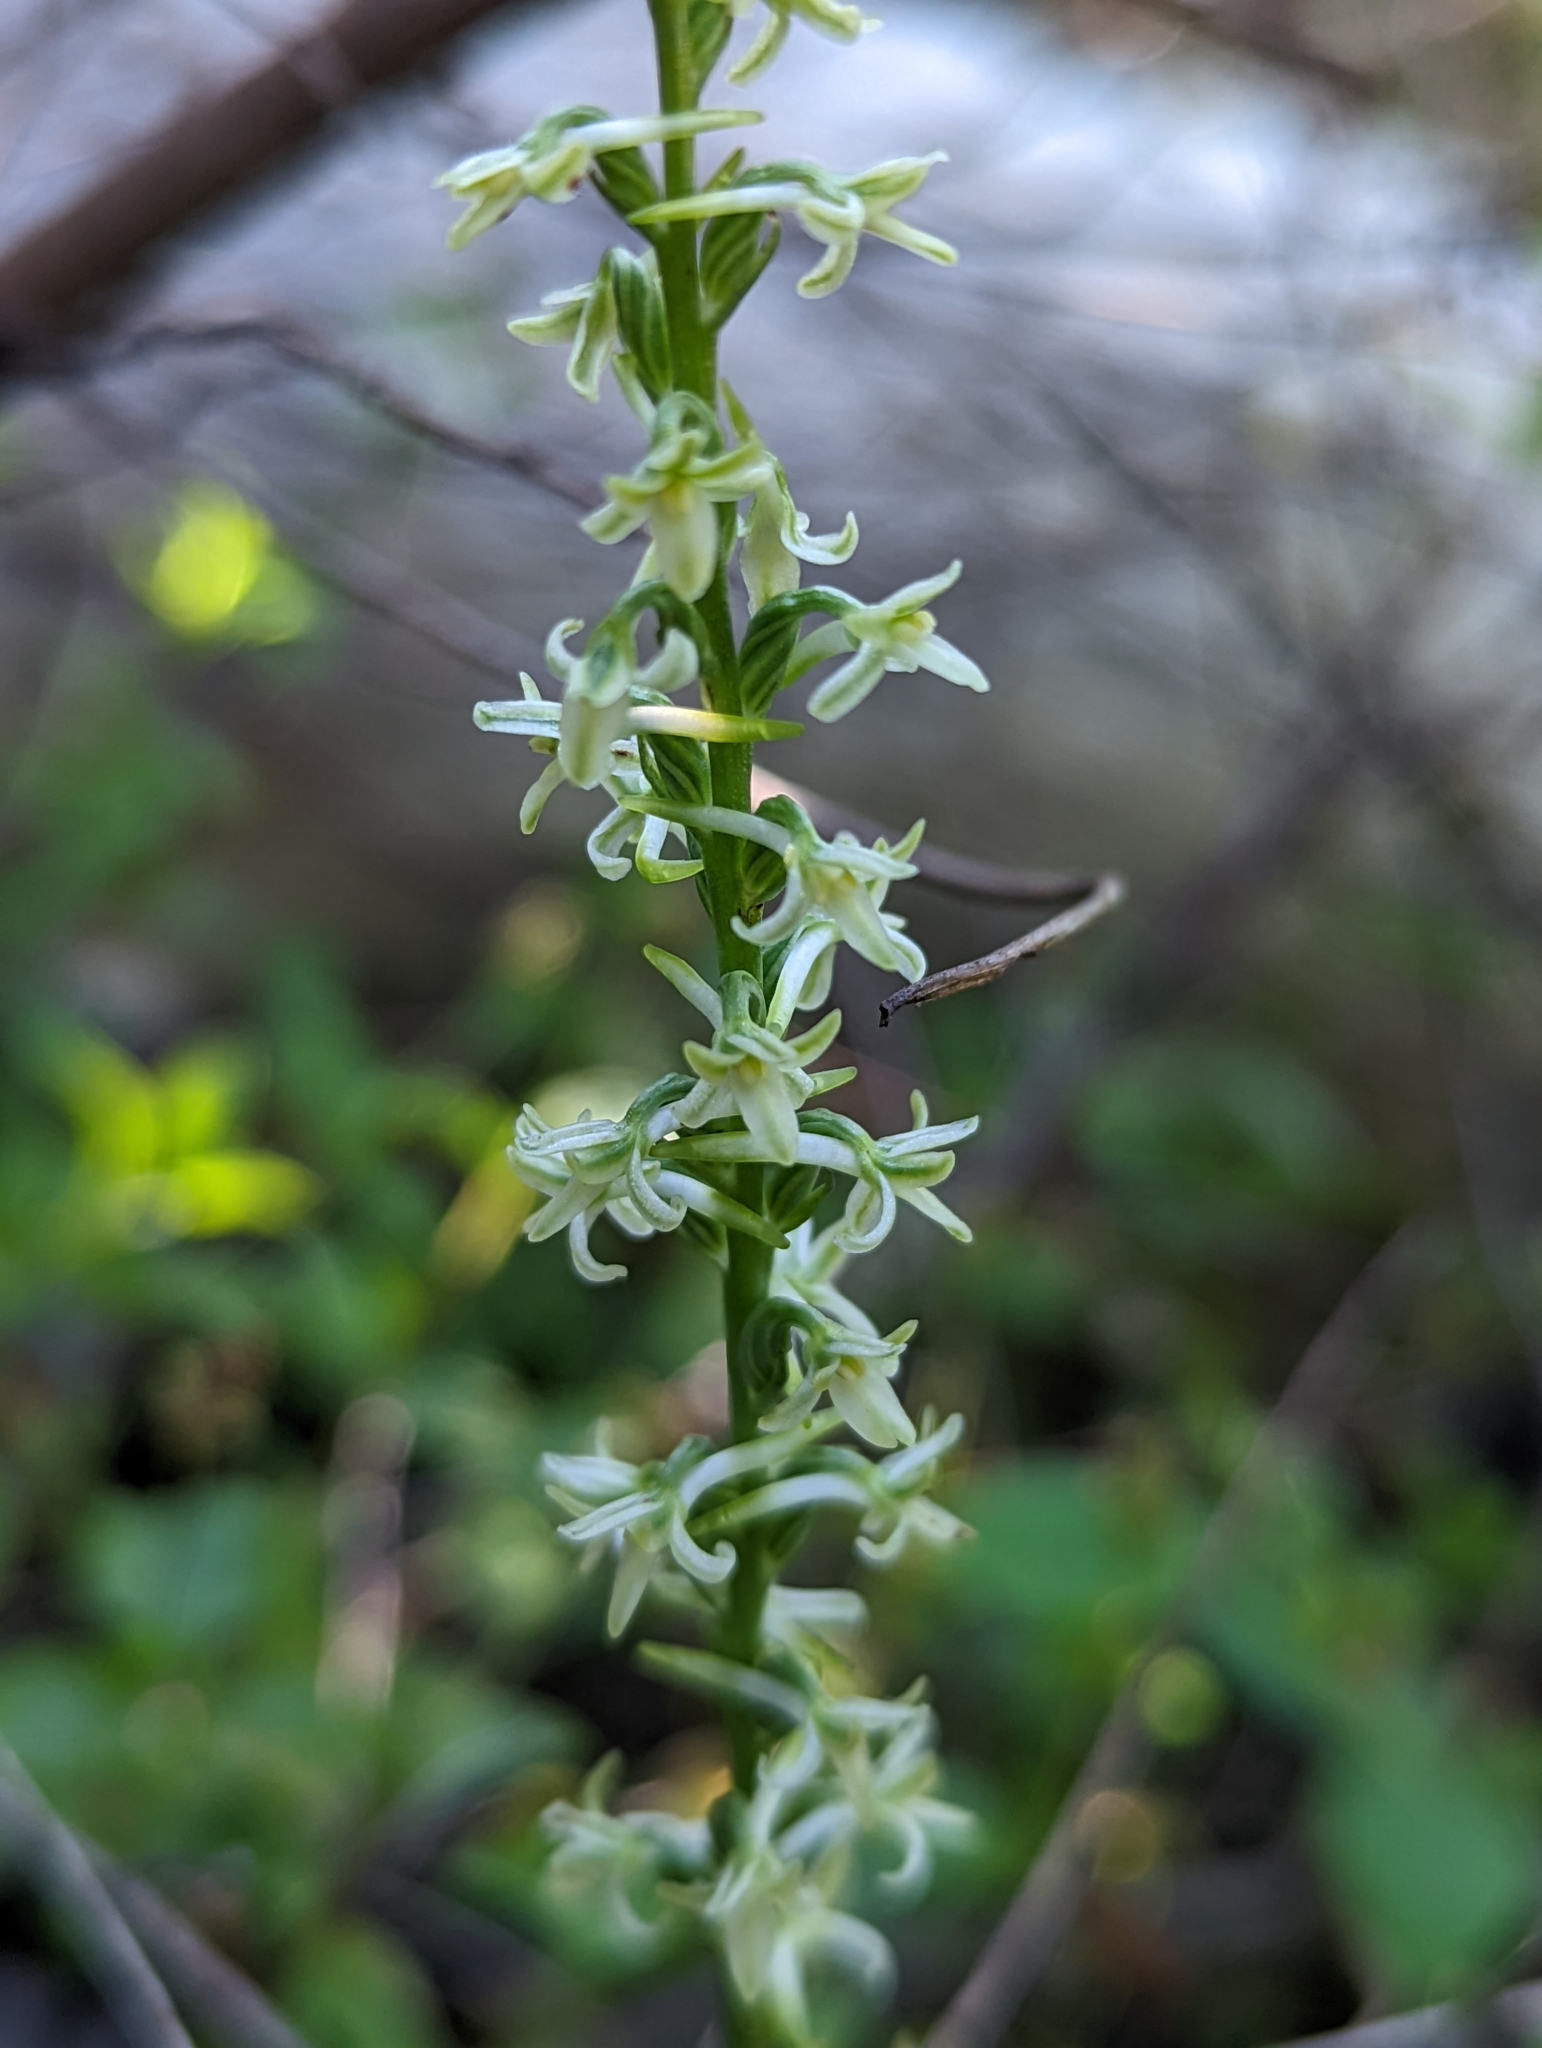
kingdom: Plantae
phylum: Tracheophyta
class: Liliopsida
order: Asparagales
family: Orchidaceae
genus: Platanthera
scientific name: Platanthera transversa
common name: Royal rein orchid
